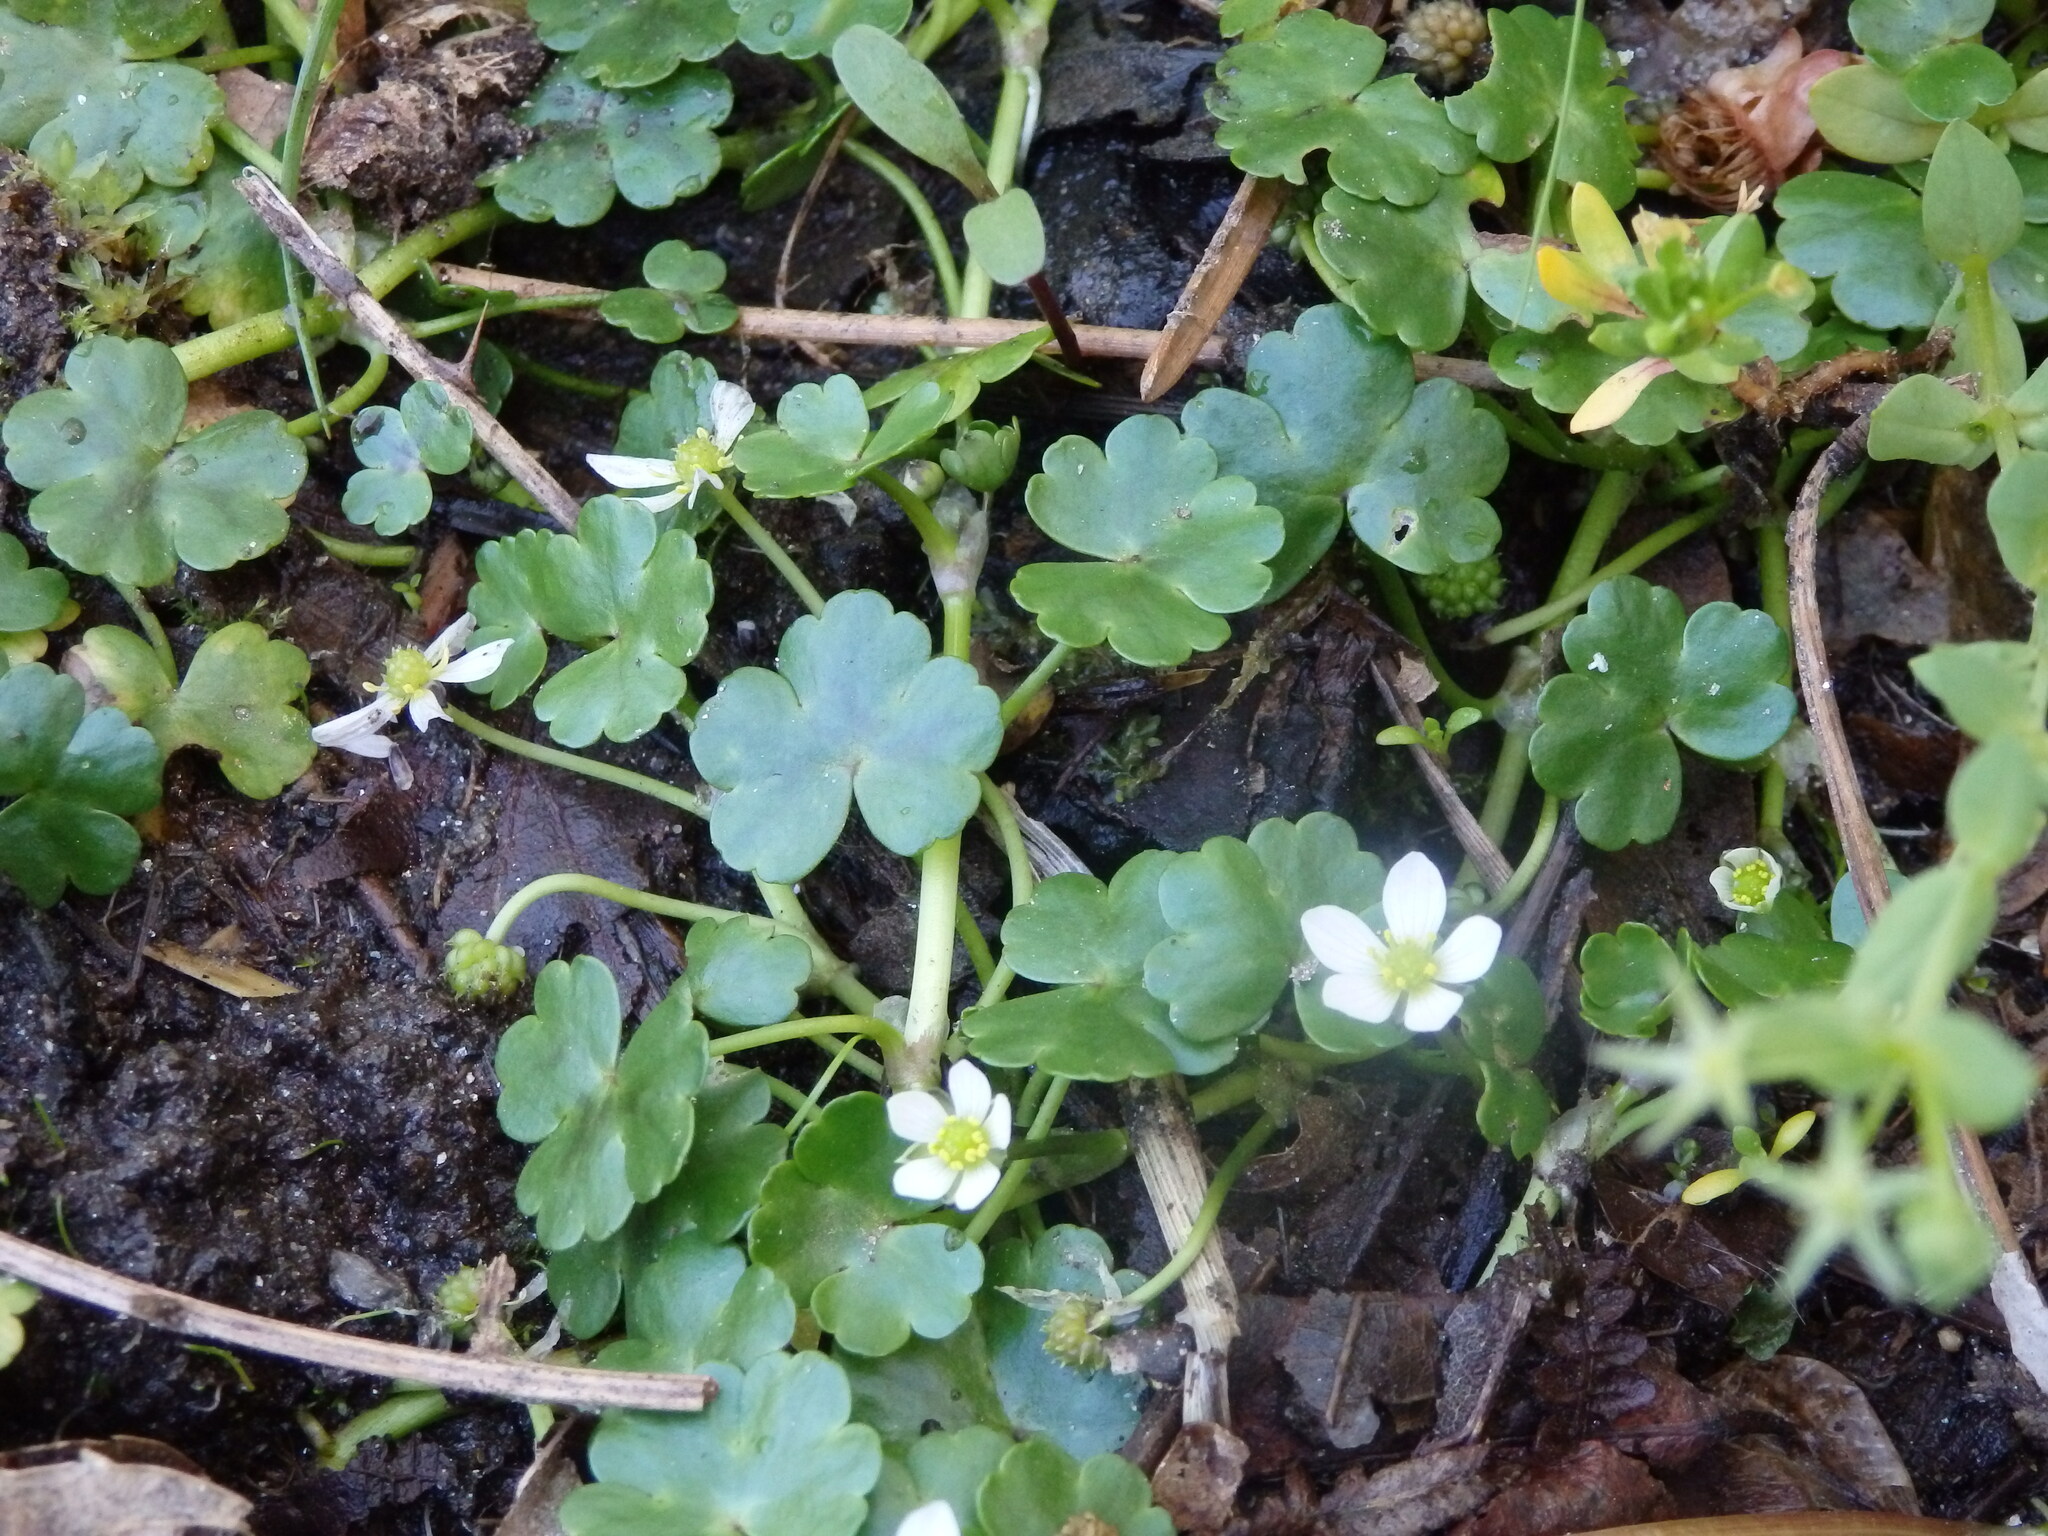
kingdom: Plantae
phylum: Tracheophyta
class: Magnoliopsida
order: Ranunculales
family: Ranunculaceae
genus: Ranunculus
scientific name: Ranunculus omiophyllus
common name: Round-leaved crowfoot
